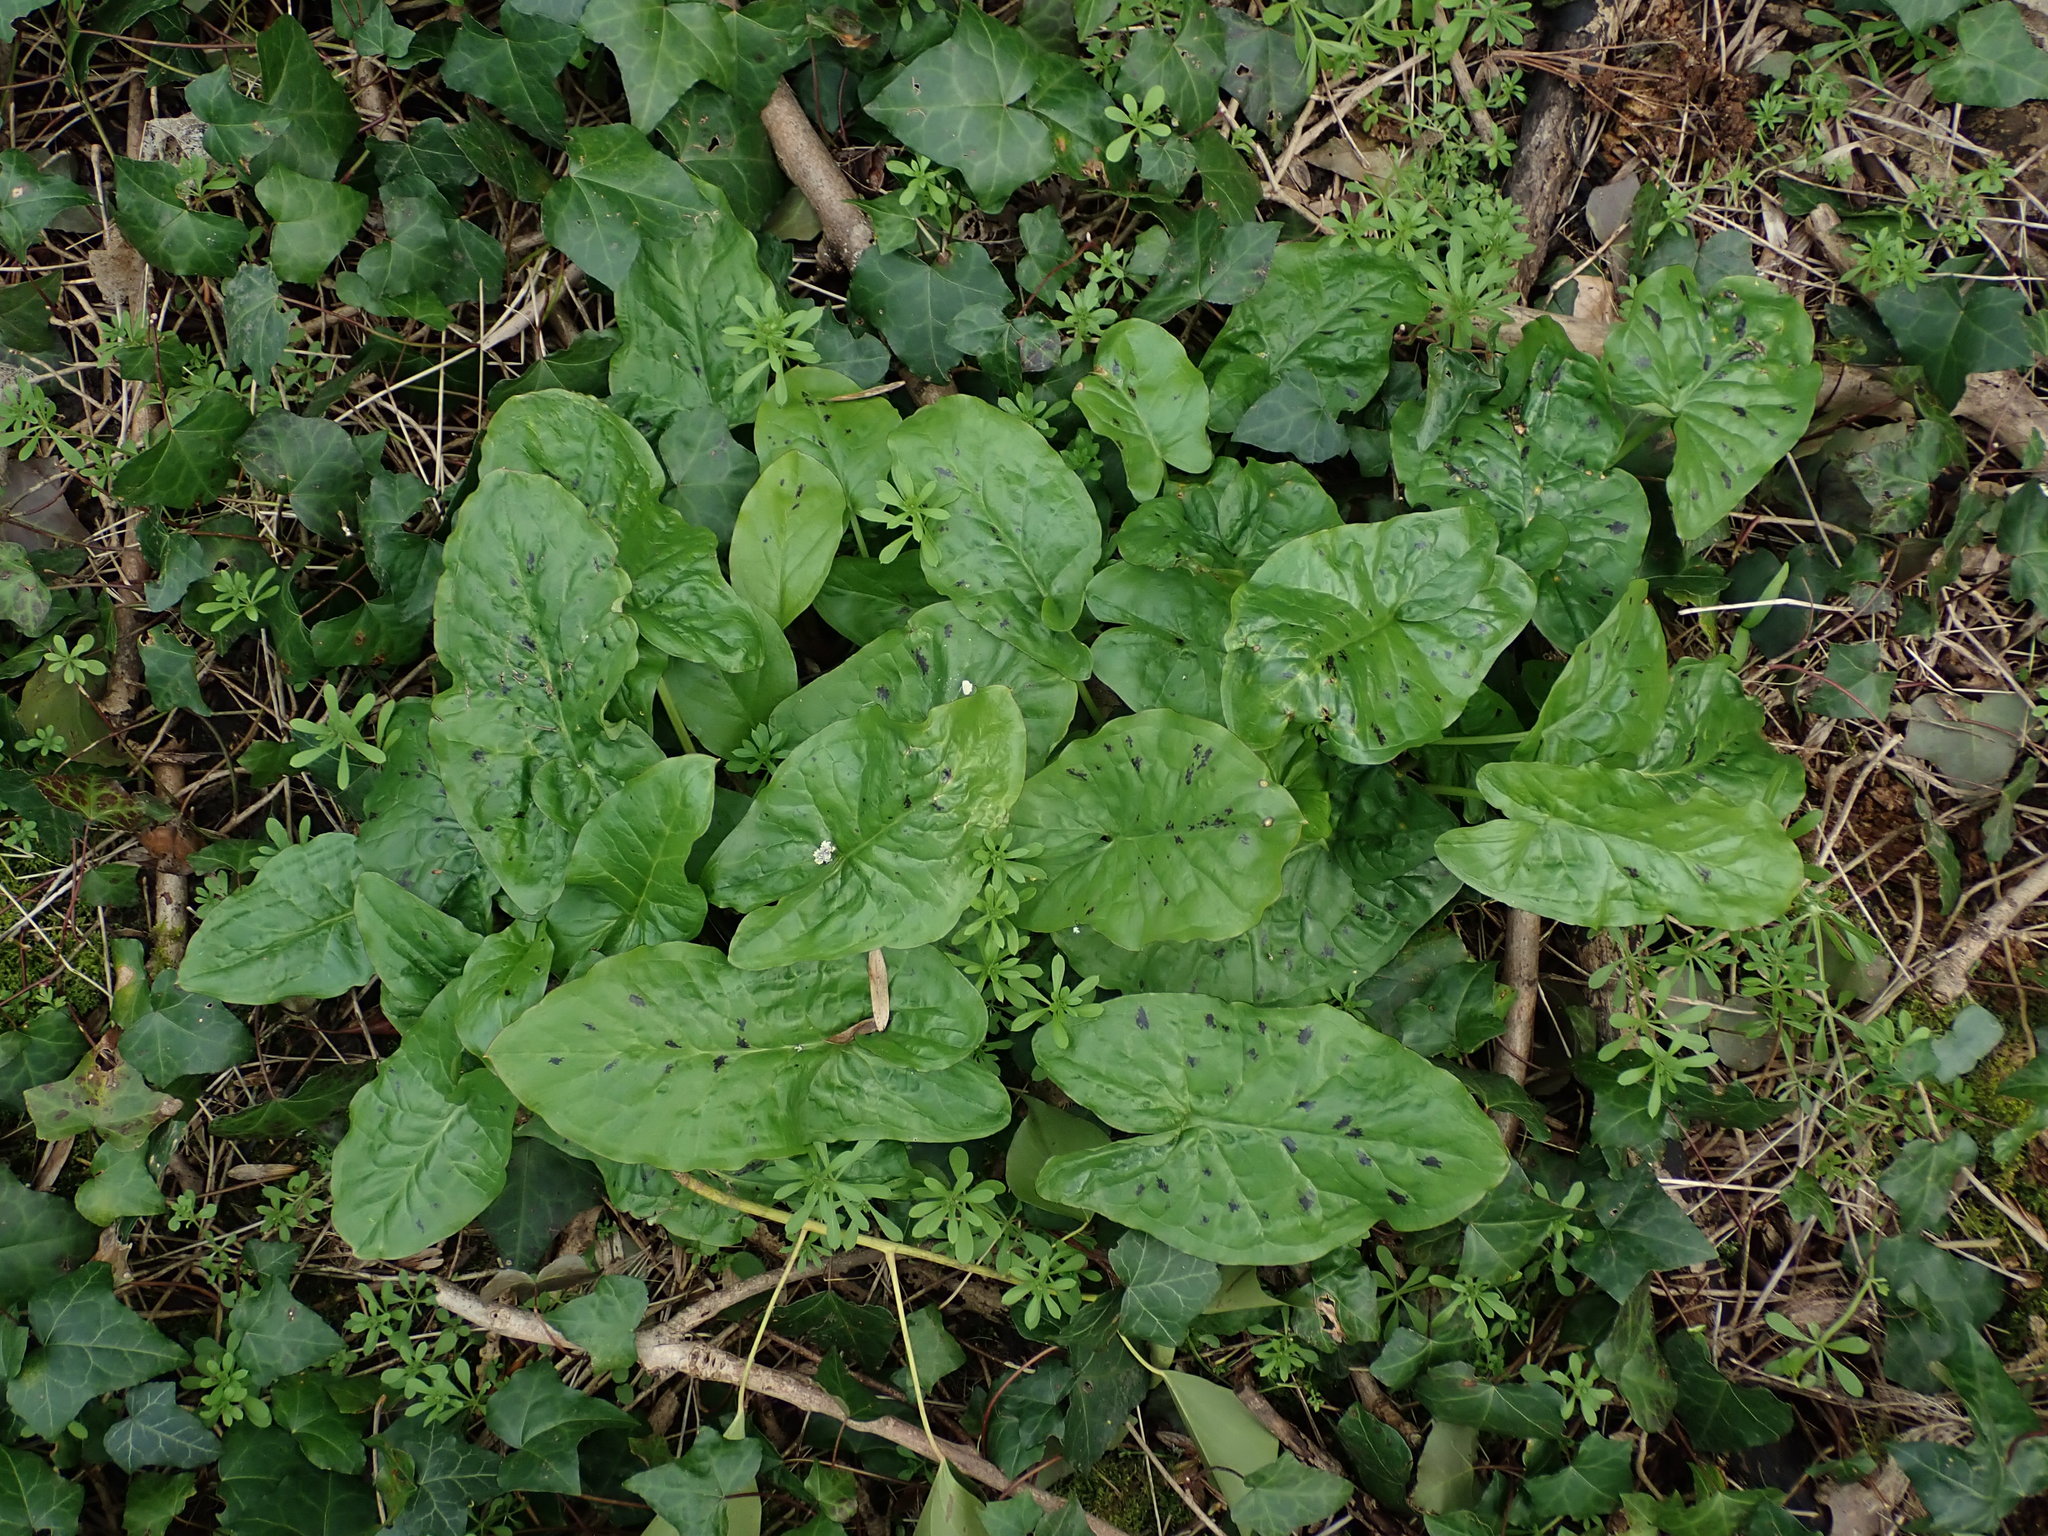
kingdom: Plantae
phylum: Tracheophyta
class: Liliopsida
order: Alismatales
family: Araceae
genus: Arum
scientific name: Arum maculatum
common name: Lords-and-ladies
